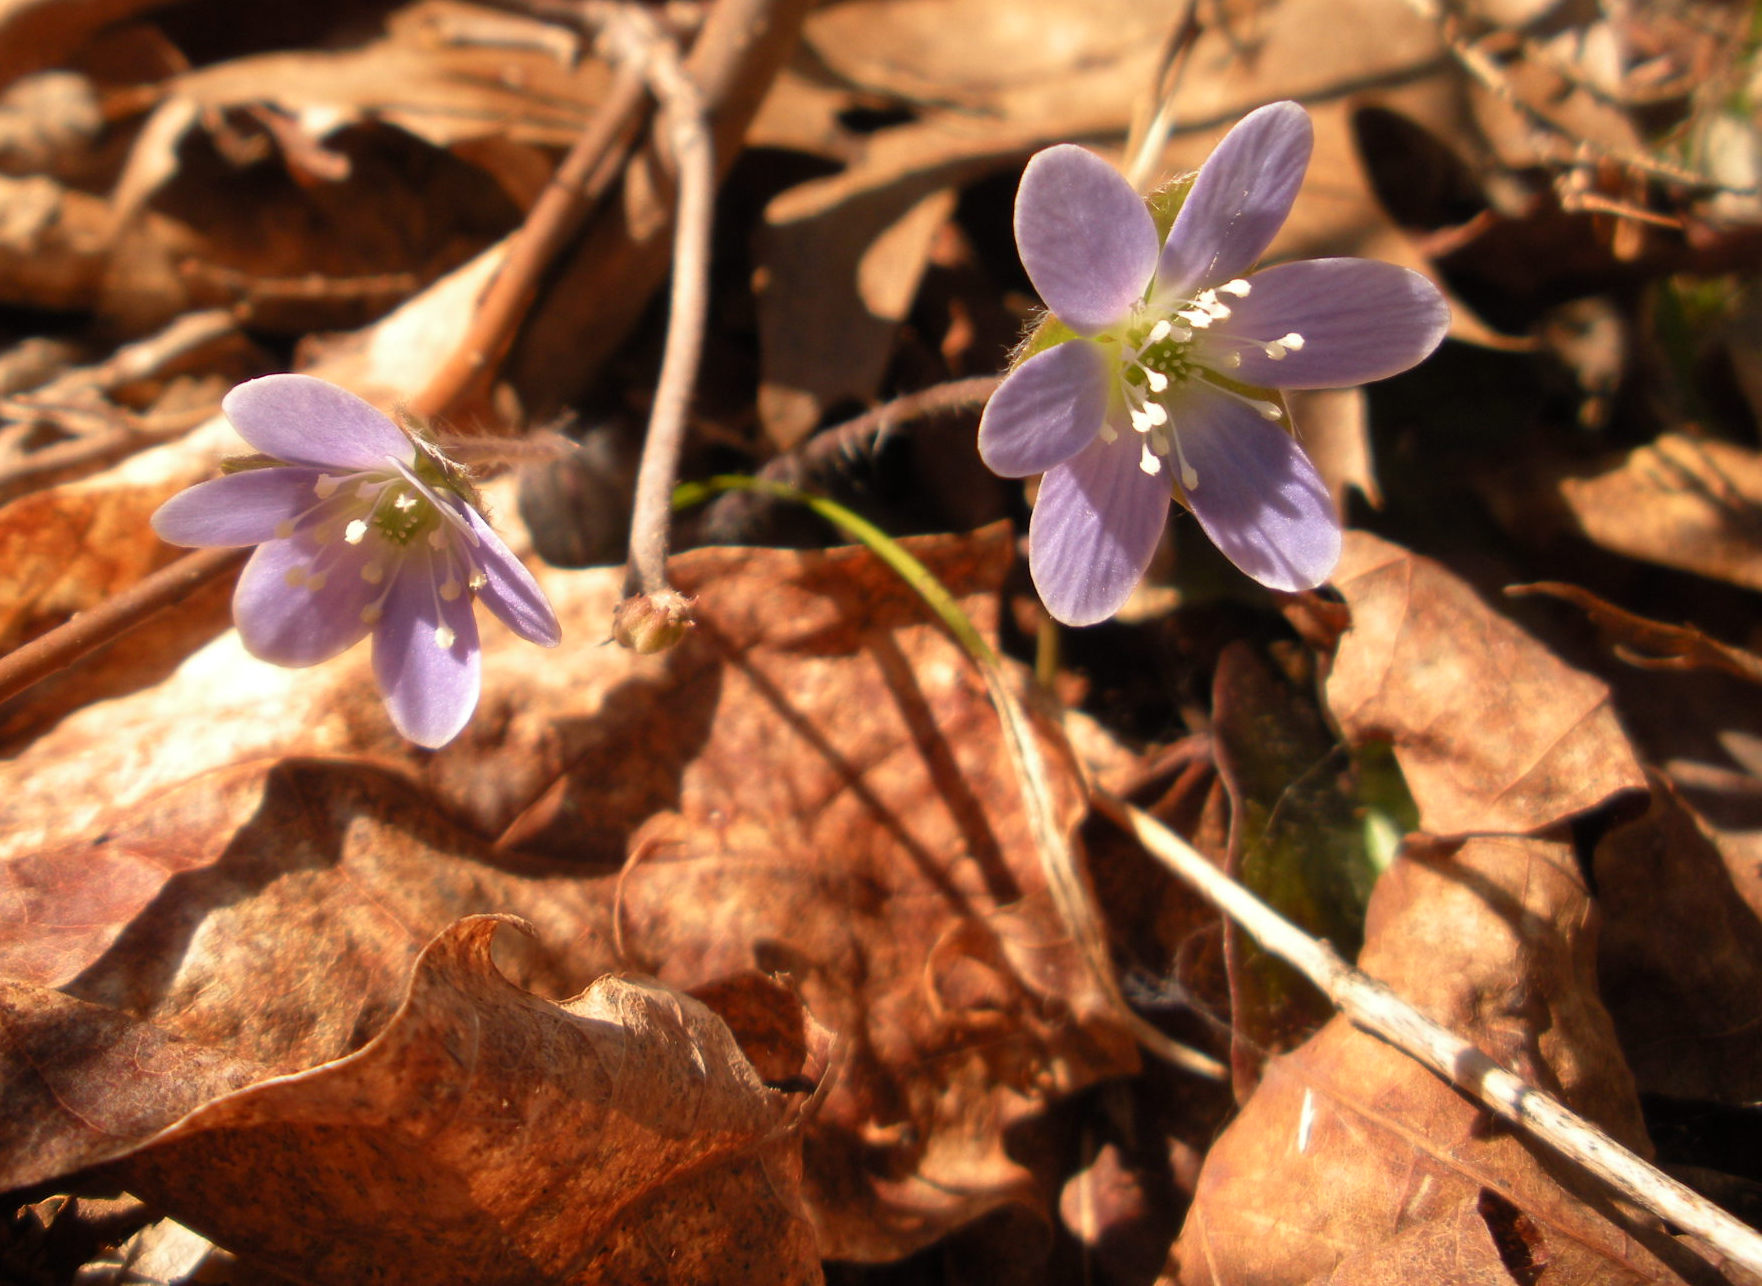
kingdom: Plantae
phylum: Tracheophyta
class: Magnoliopsida
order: Ranunculales
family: Ranunculaceae
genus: Hepatica
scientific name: Hepatica americana
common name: American hepatica
